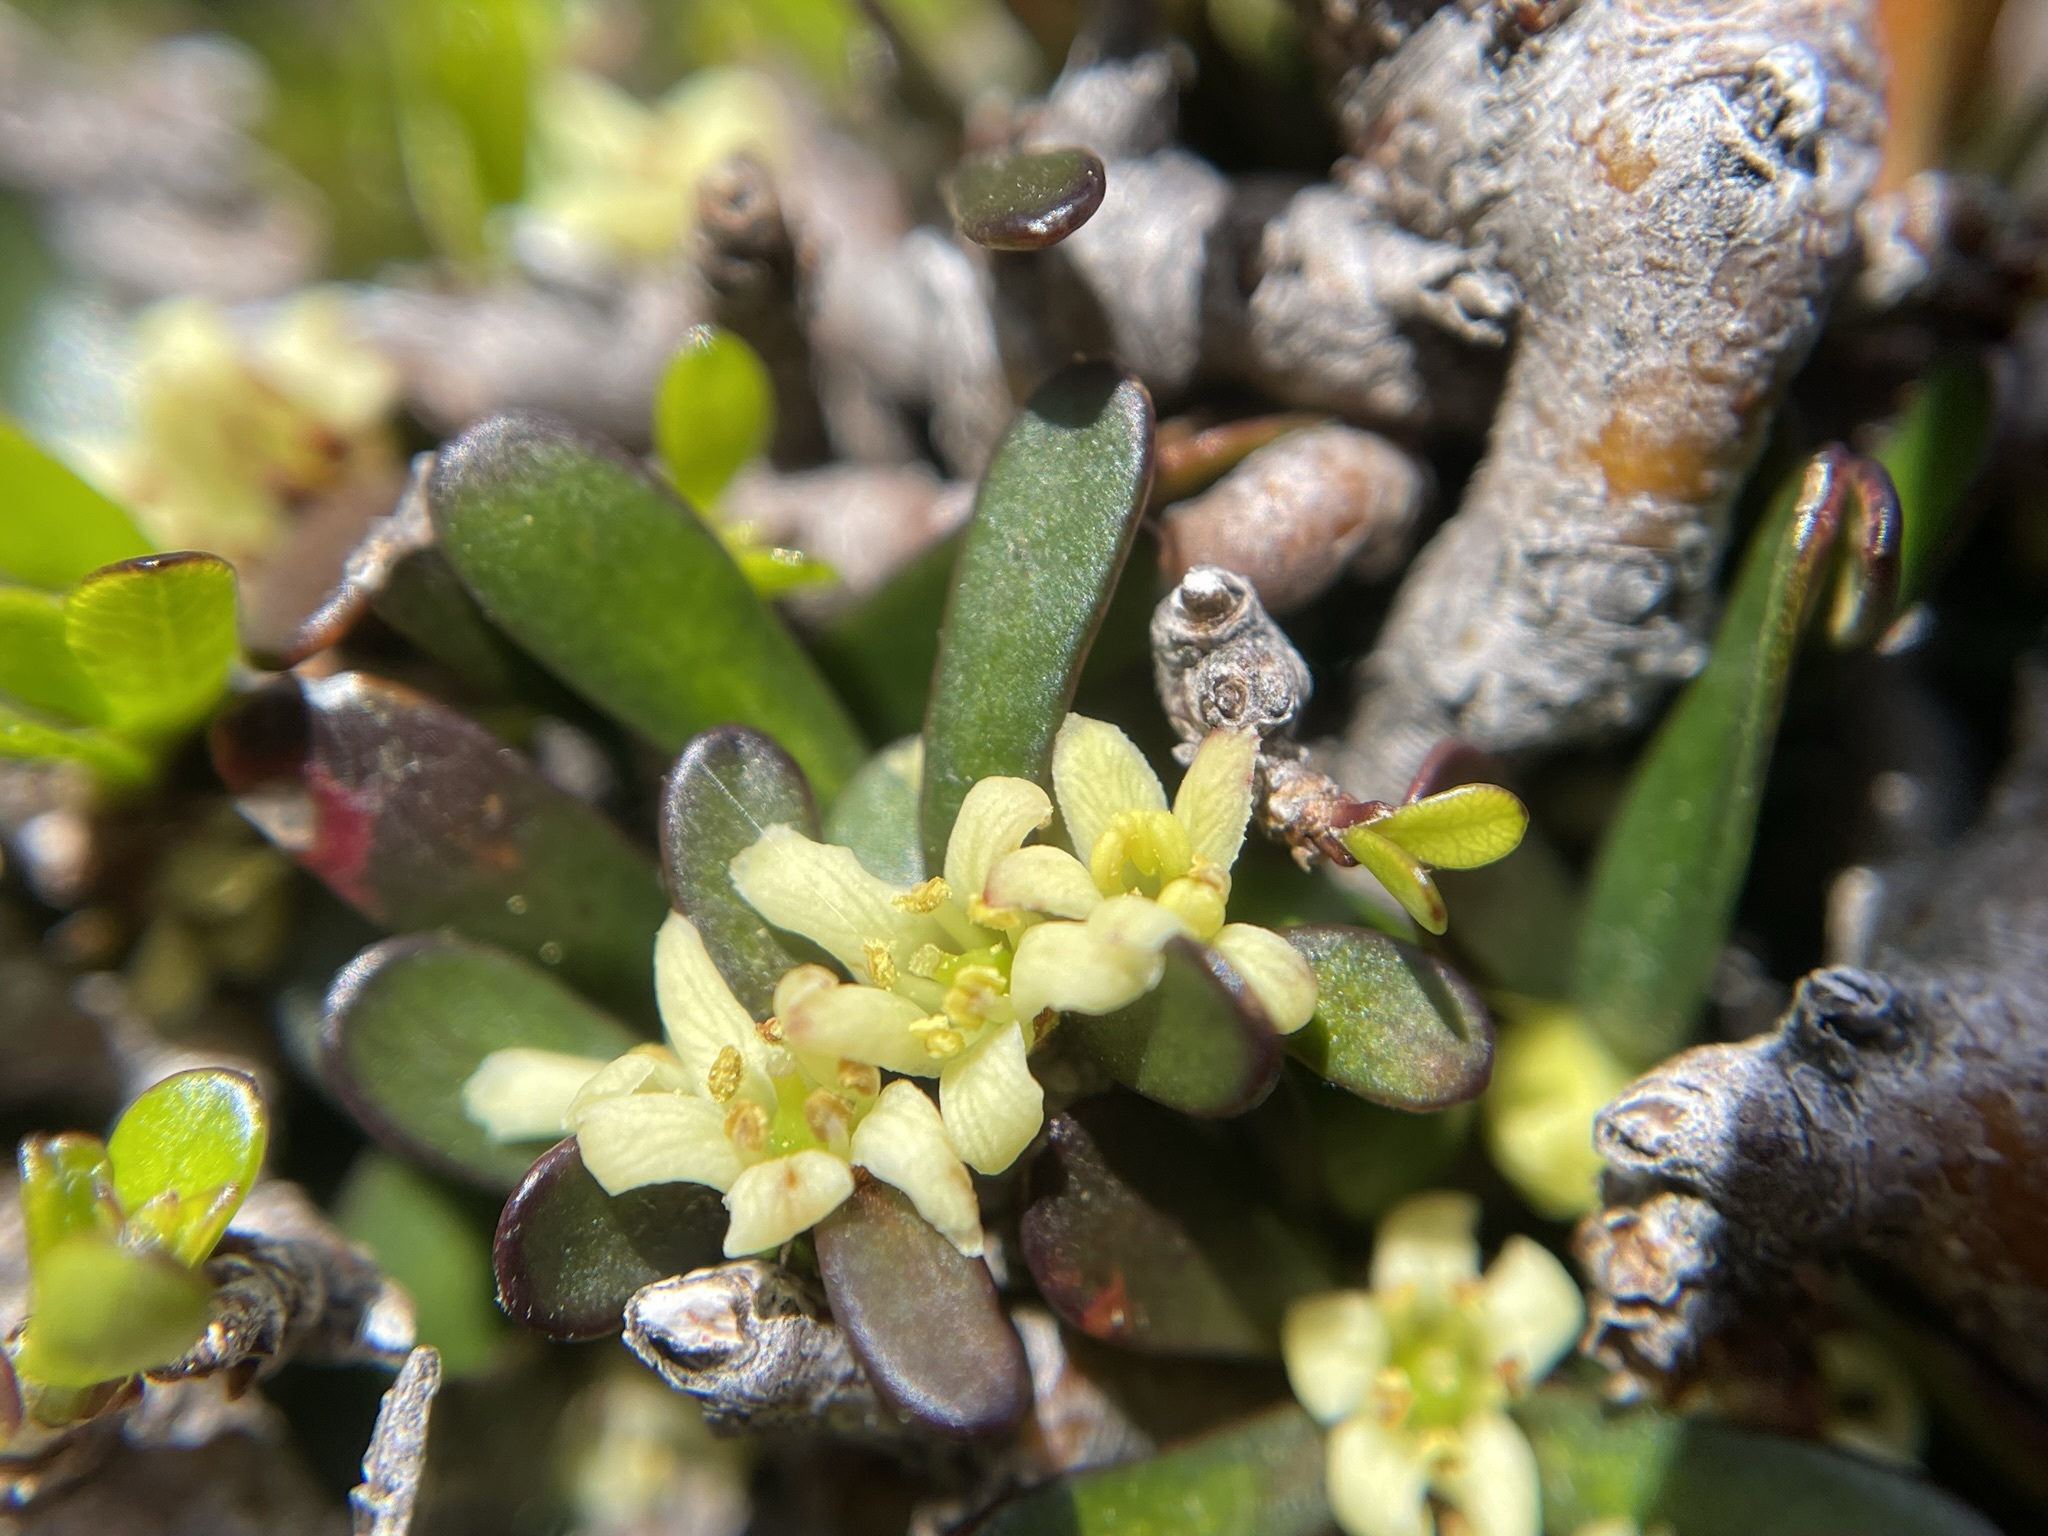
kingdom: Plantae
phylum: Tracheophyta
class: Magnoliopsida
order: Apiales
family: Pittosporaceae
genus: Pittosporum
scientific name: Pittosporum anomalum
